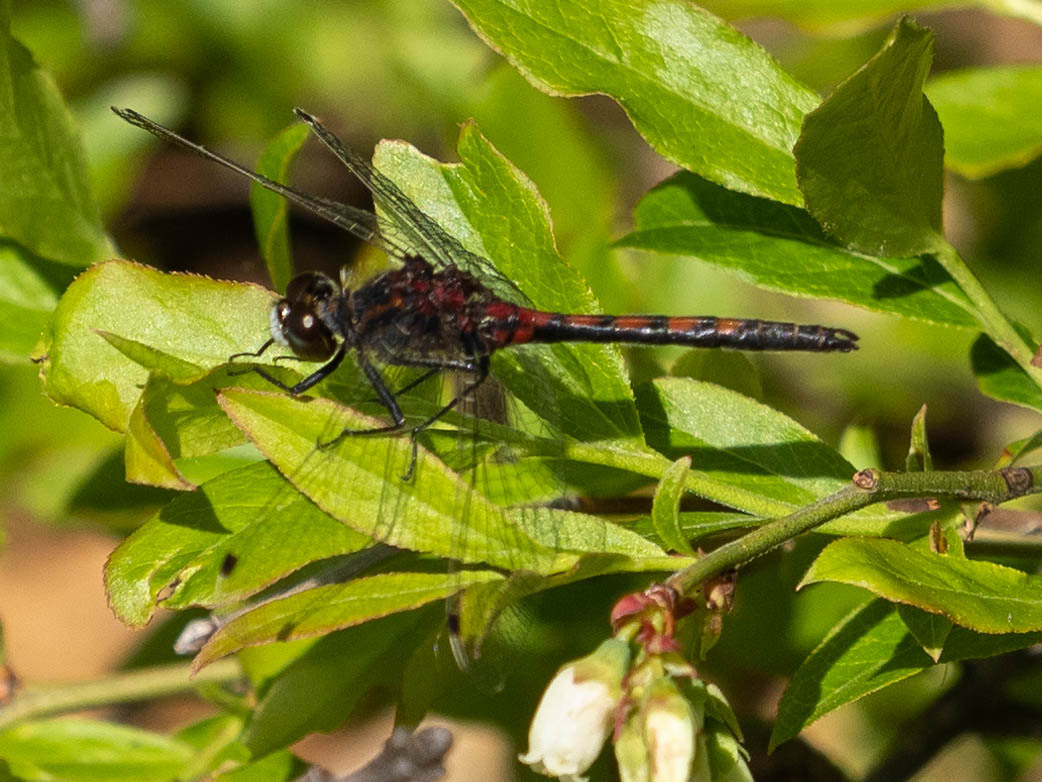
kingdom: Animalia
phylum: Arthropoda
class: Insecta
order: Odonata
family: Libellulidae
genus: Leucorrhinia
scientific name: Leucorrhinia hudsonica
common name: Hudsonian whiteface
